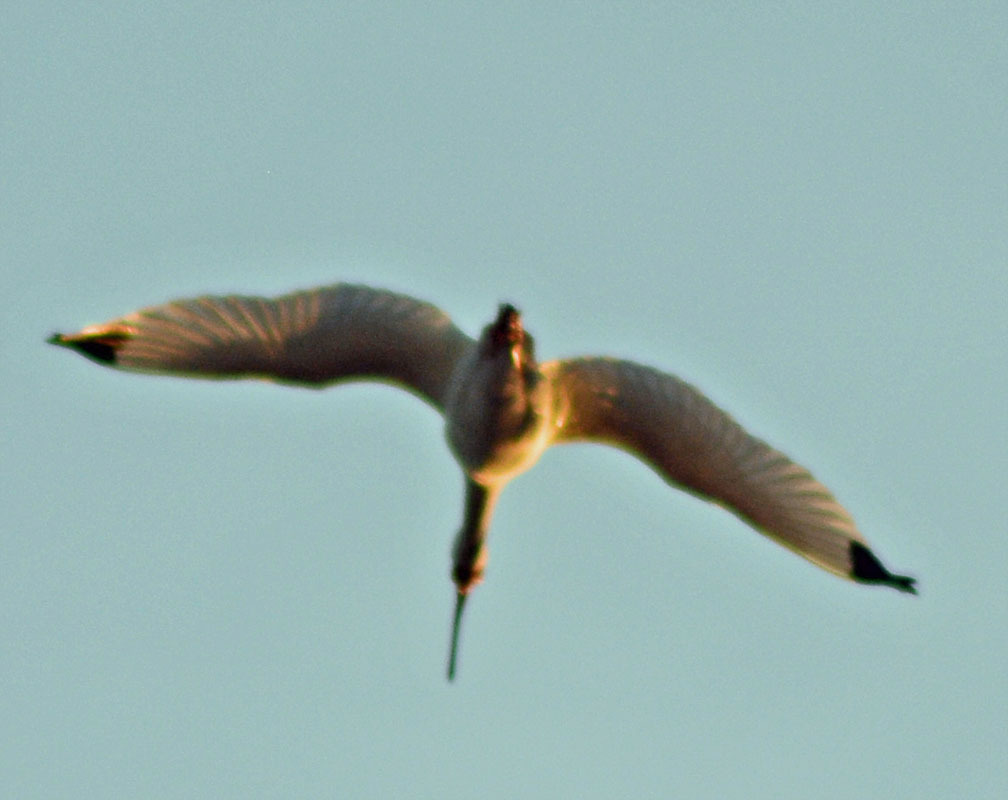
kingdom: Animalia
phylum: Chordata
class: Aves
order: Pelecaniformes
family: Threskiornithidae
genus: Eudocimus
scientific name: Eudocimus albus
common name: White ibis
